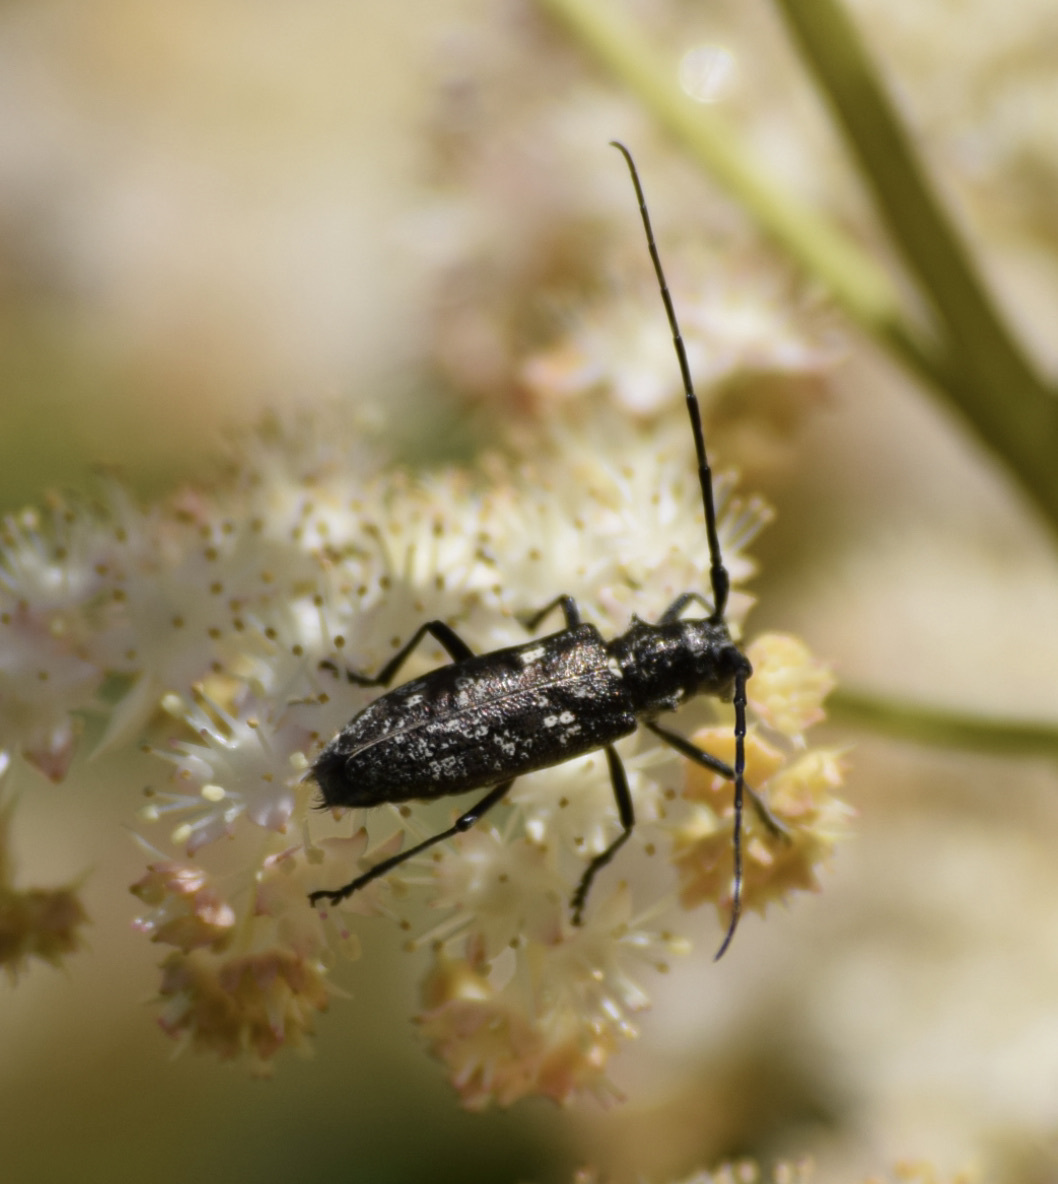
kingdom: Animalia
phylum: Arthropoda
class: Insecta
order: Coleoptera
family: Cerambycidae
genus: Monochamus
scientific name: Monochamus scutellatus
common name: White-spotted sawyer beetle
